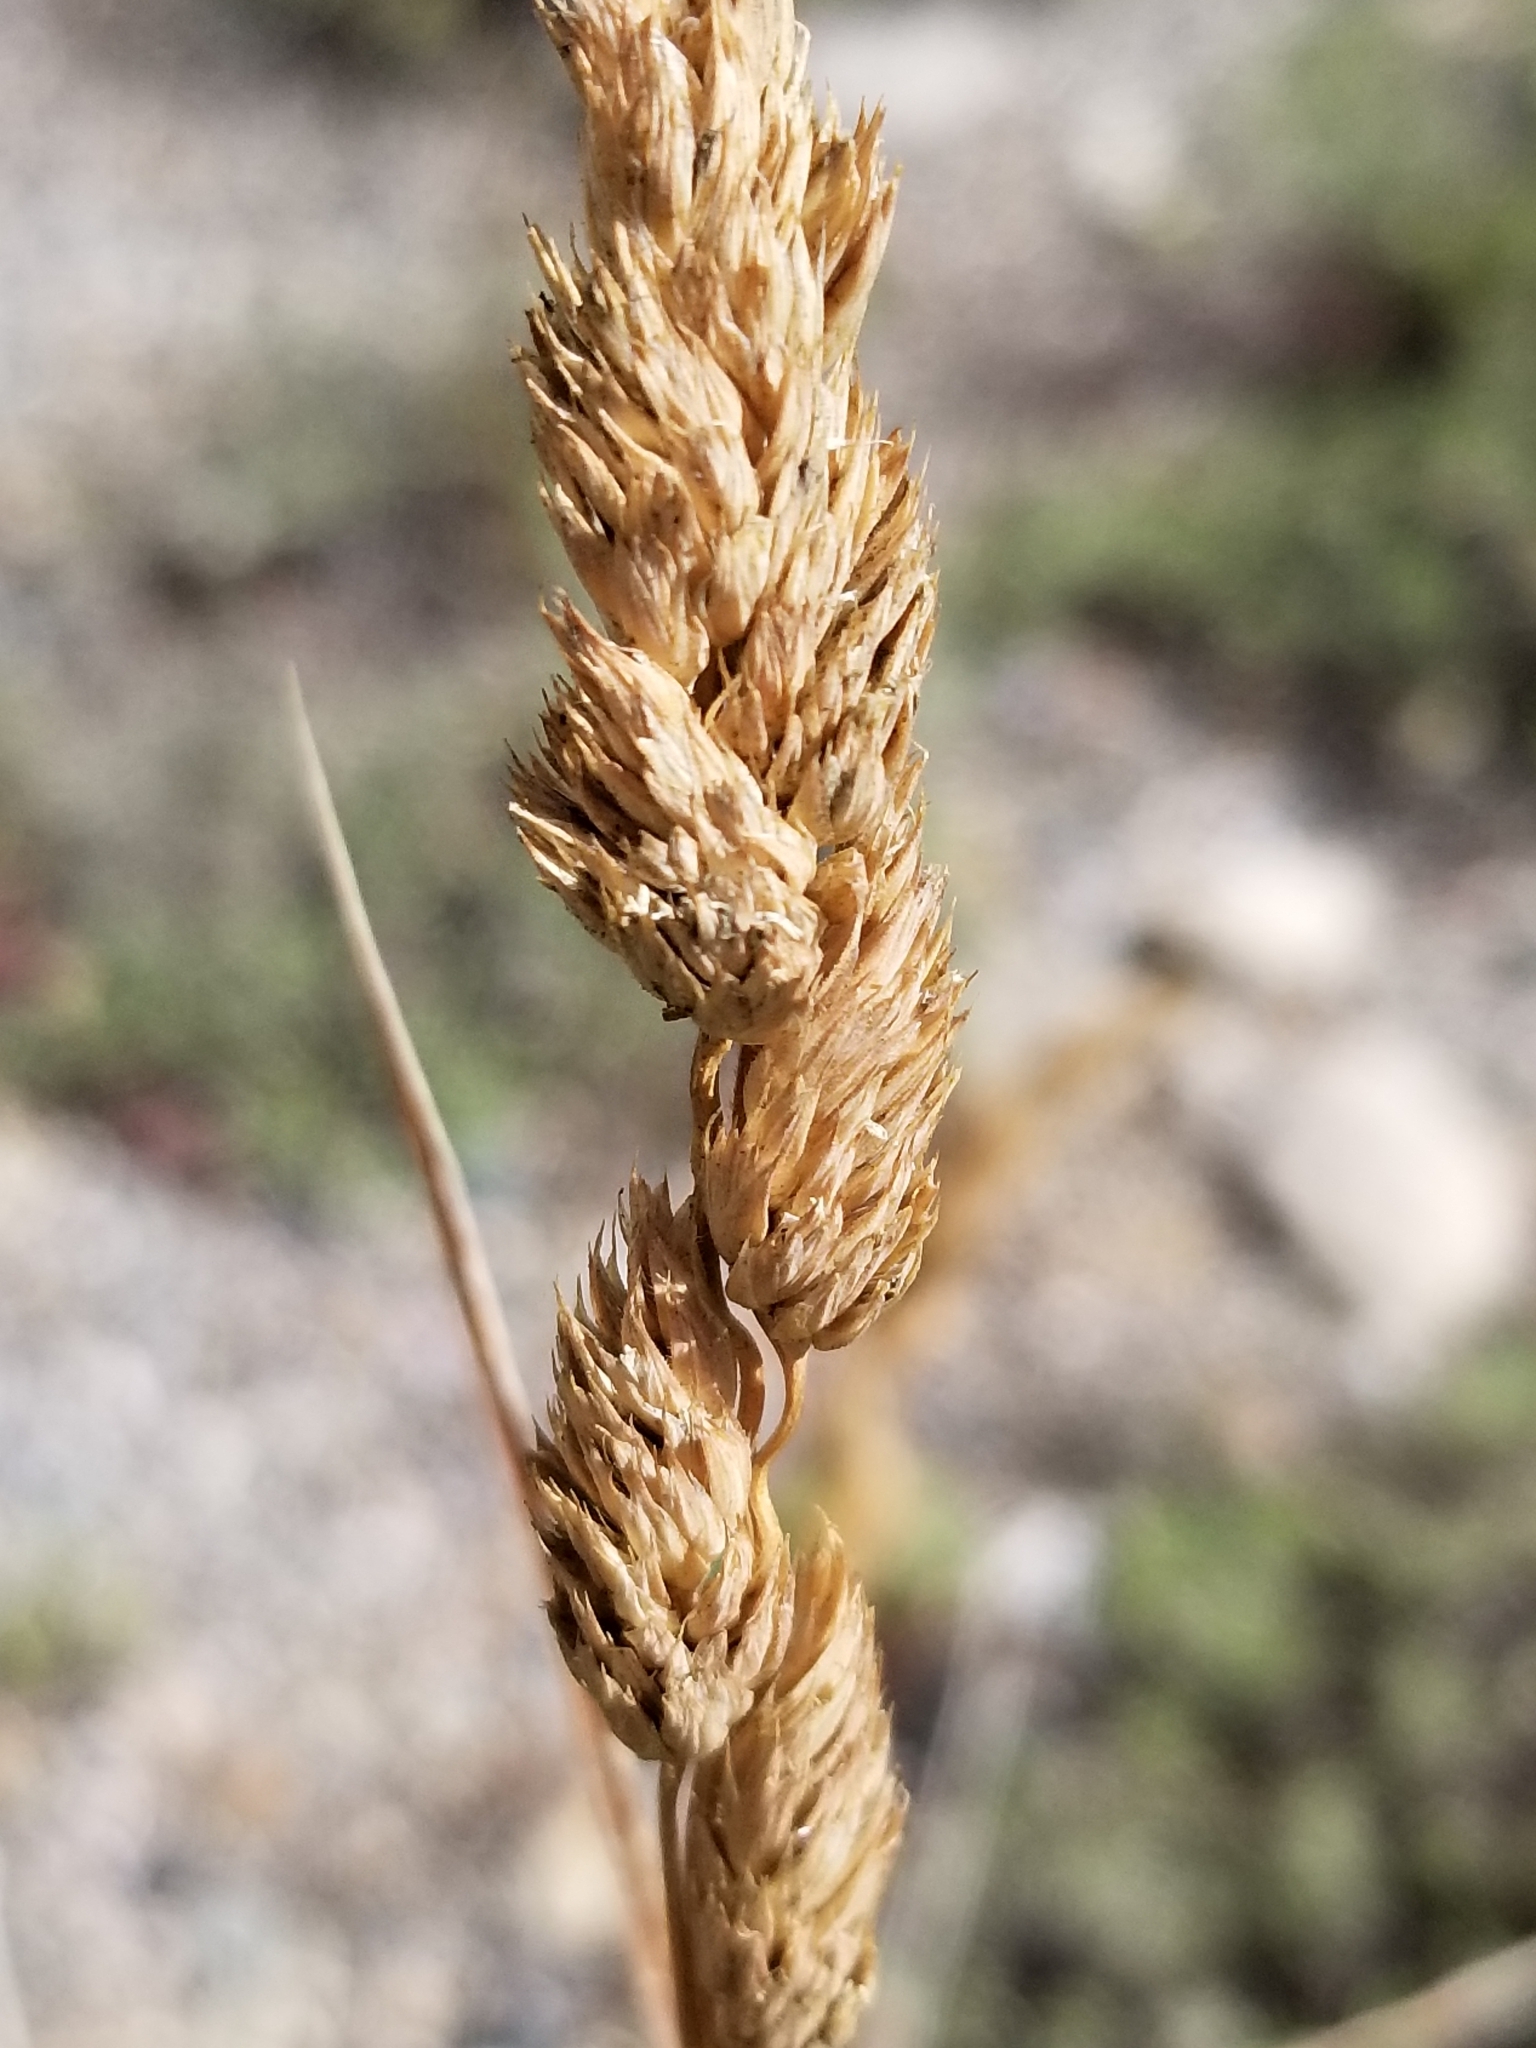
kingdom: Plantae
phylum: Tracheophyta
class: Liliopsida
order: Poales
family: Poaceae
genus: Dactylis
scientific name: Dactylis glomerata
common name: Orchardgrass
